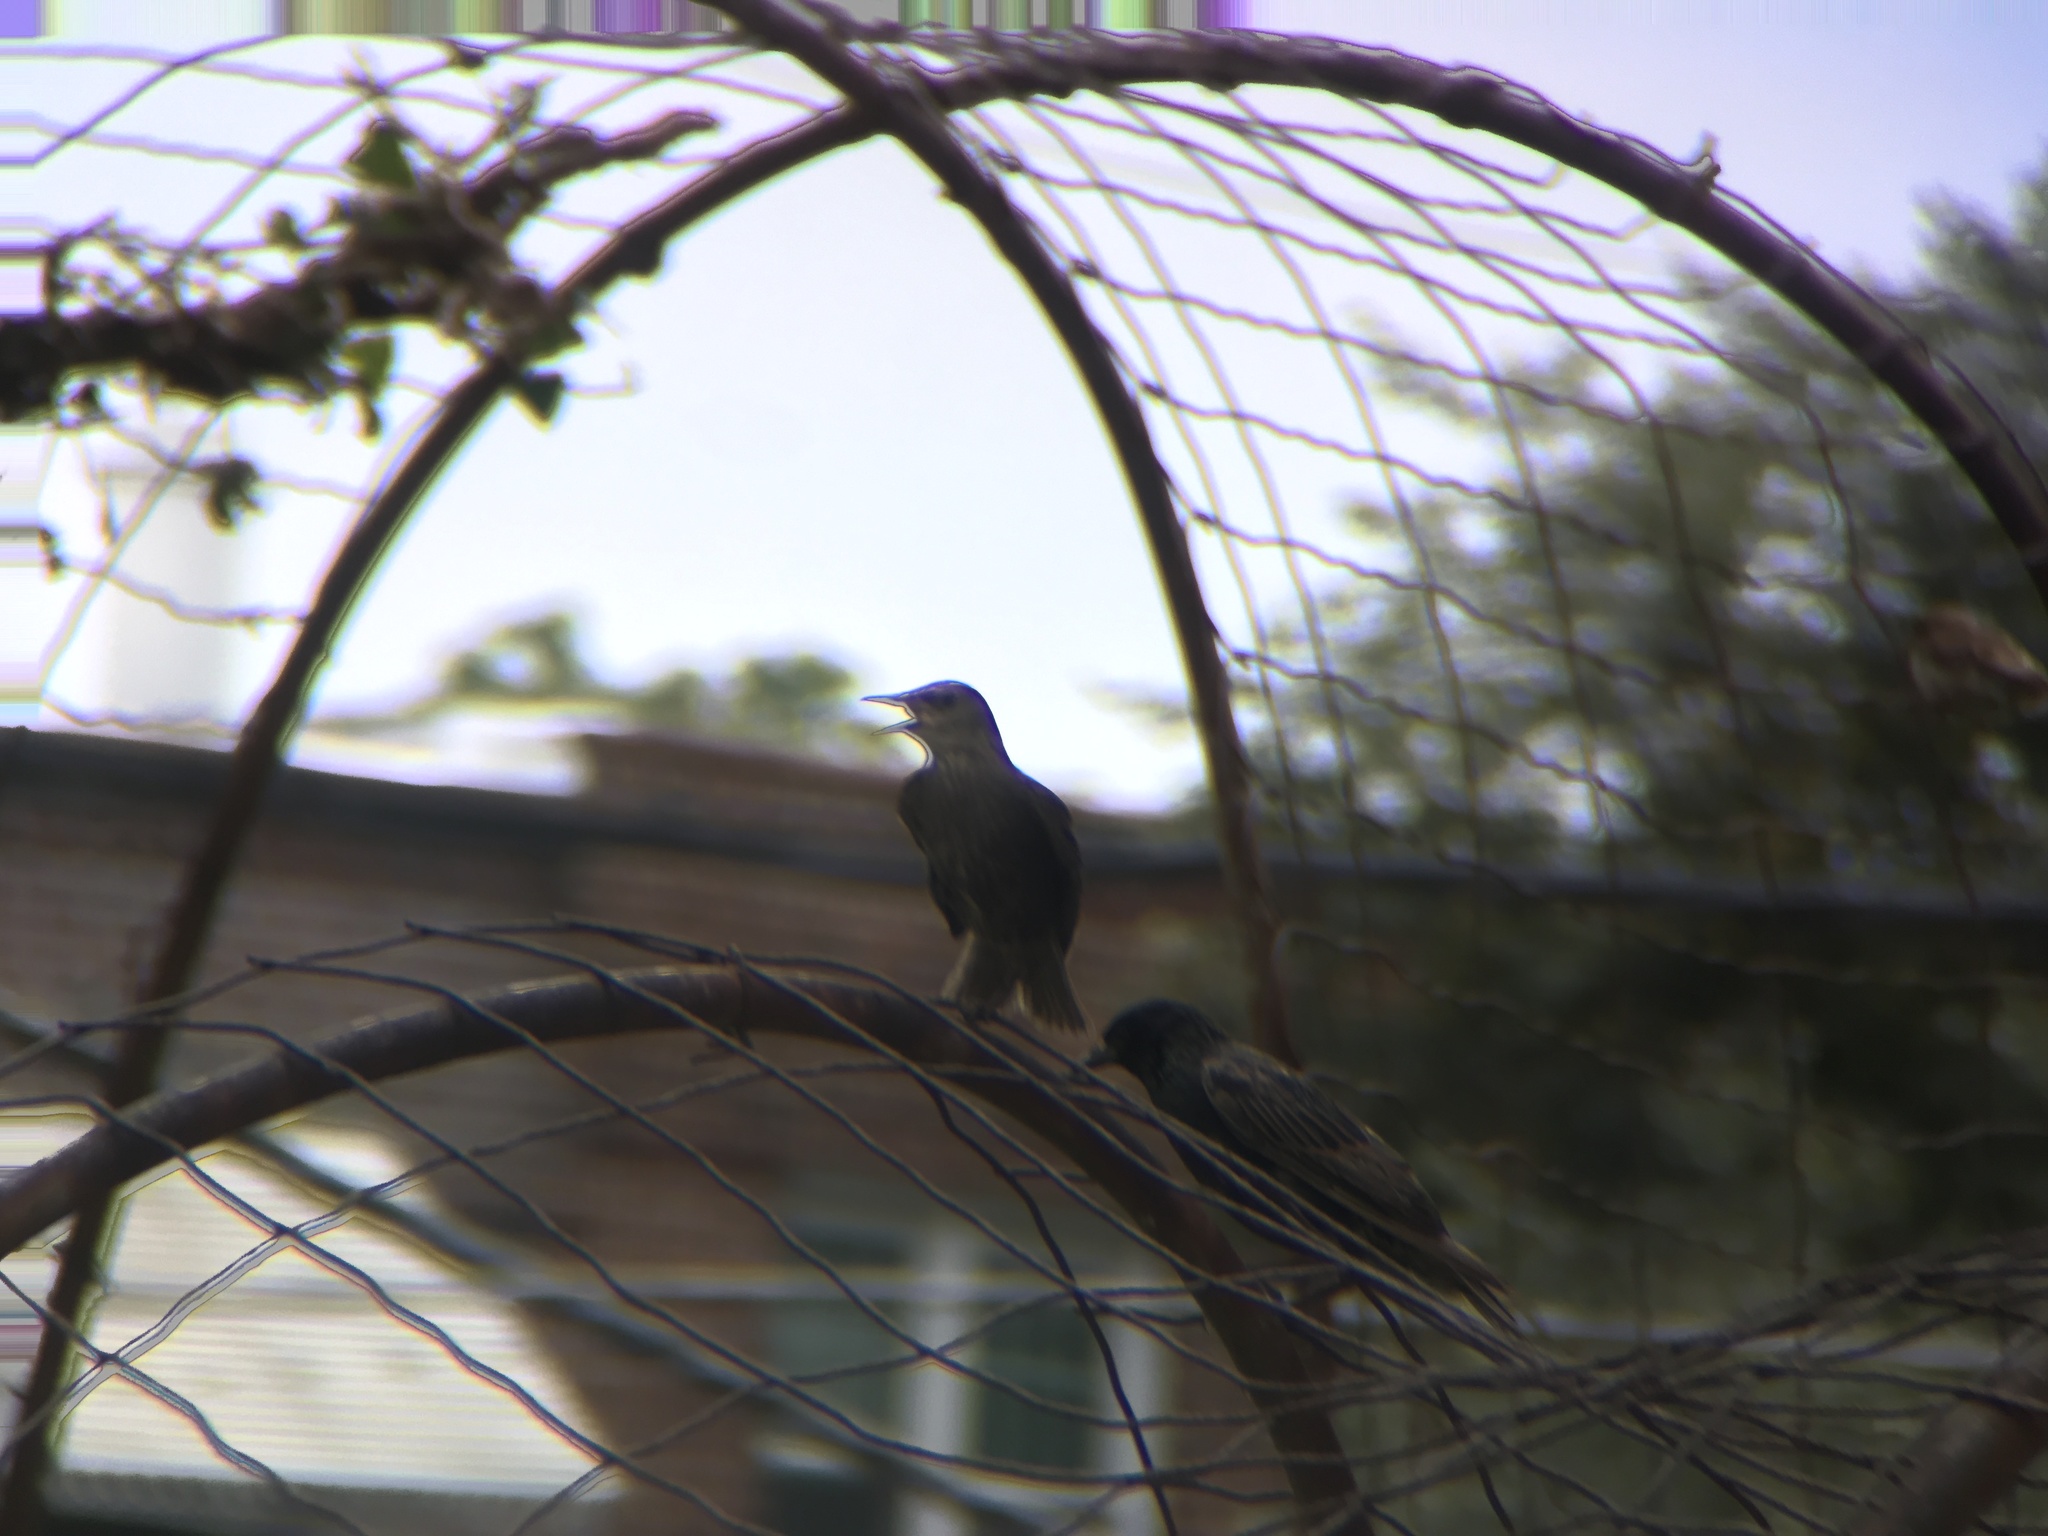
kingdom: Animalia
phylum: Chordata
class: Aves
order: Passeriformes
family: Sturnidae
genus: Sturnus
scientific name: Sturnus vulgaris
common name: Common starling
